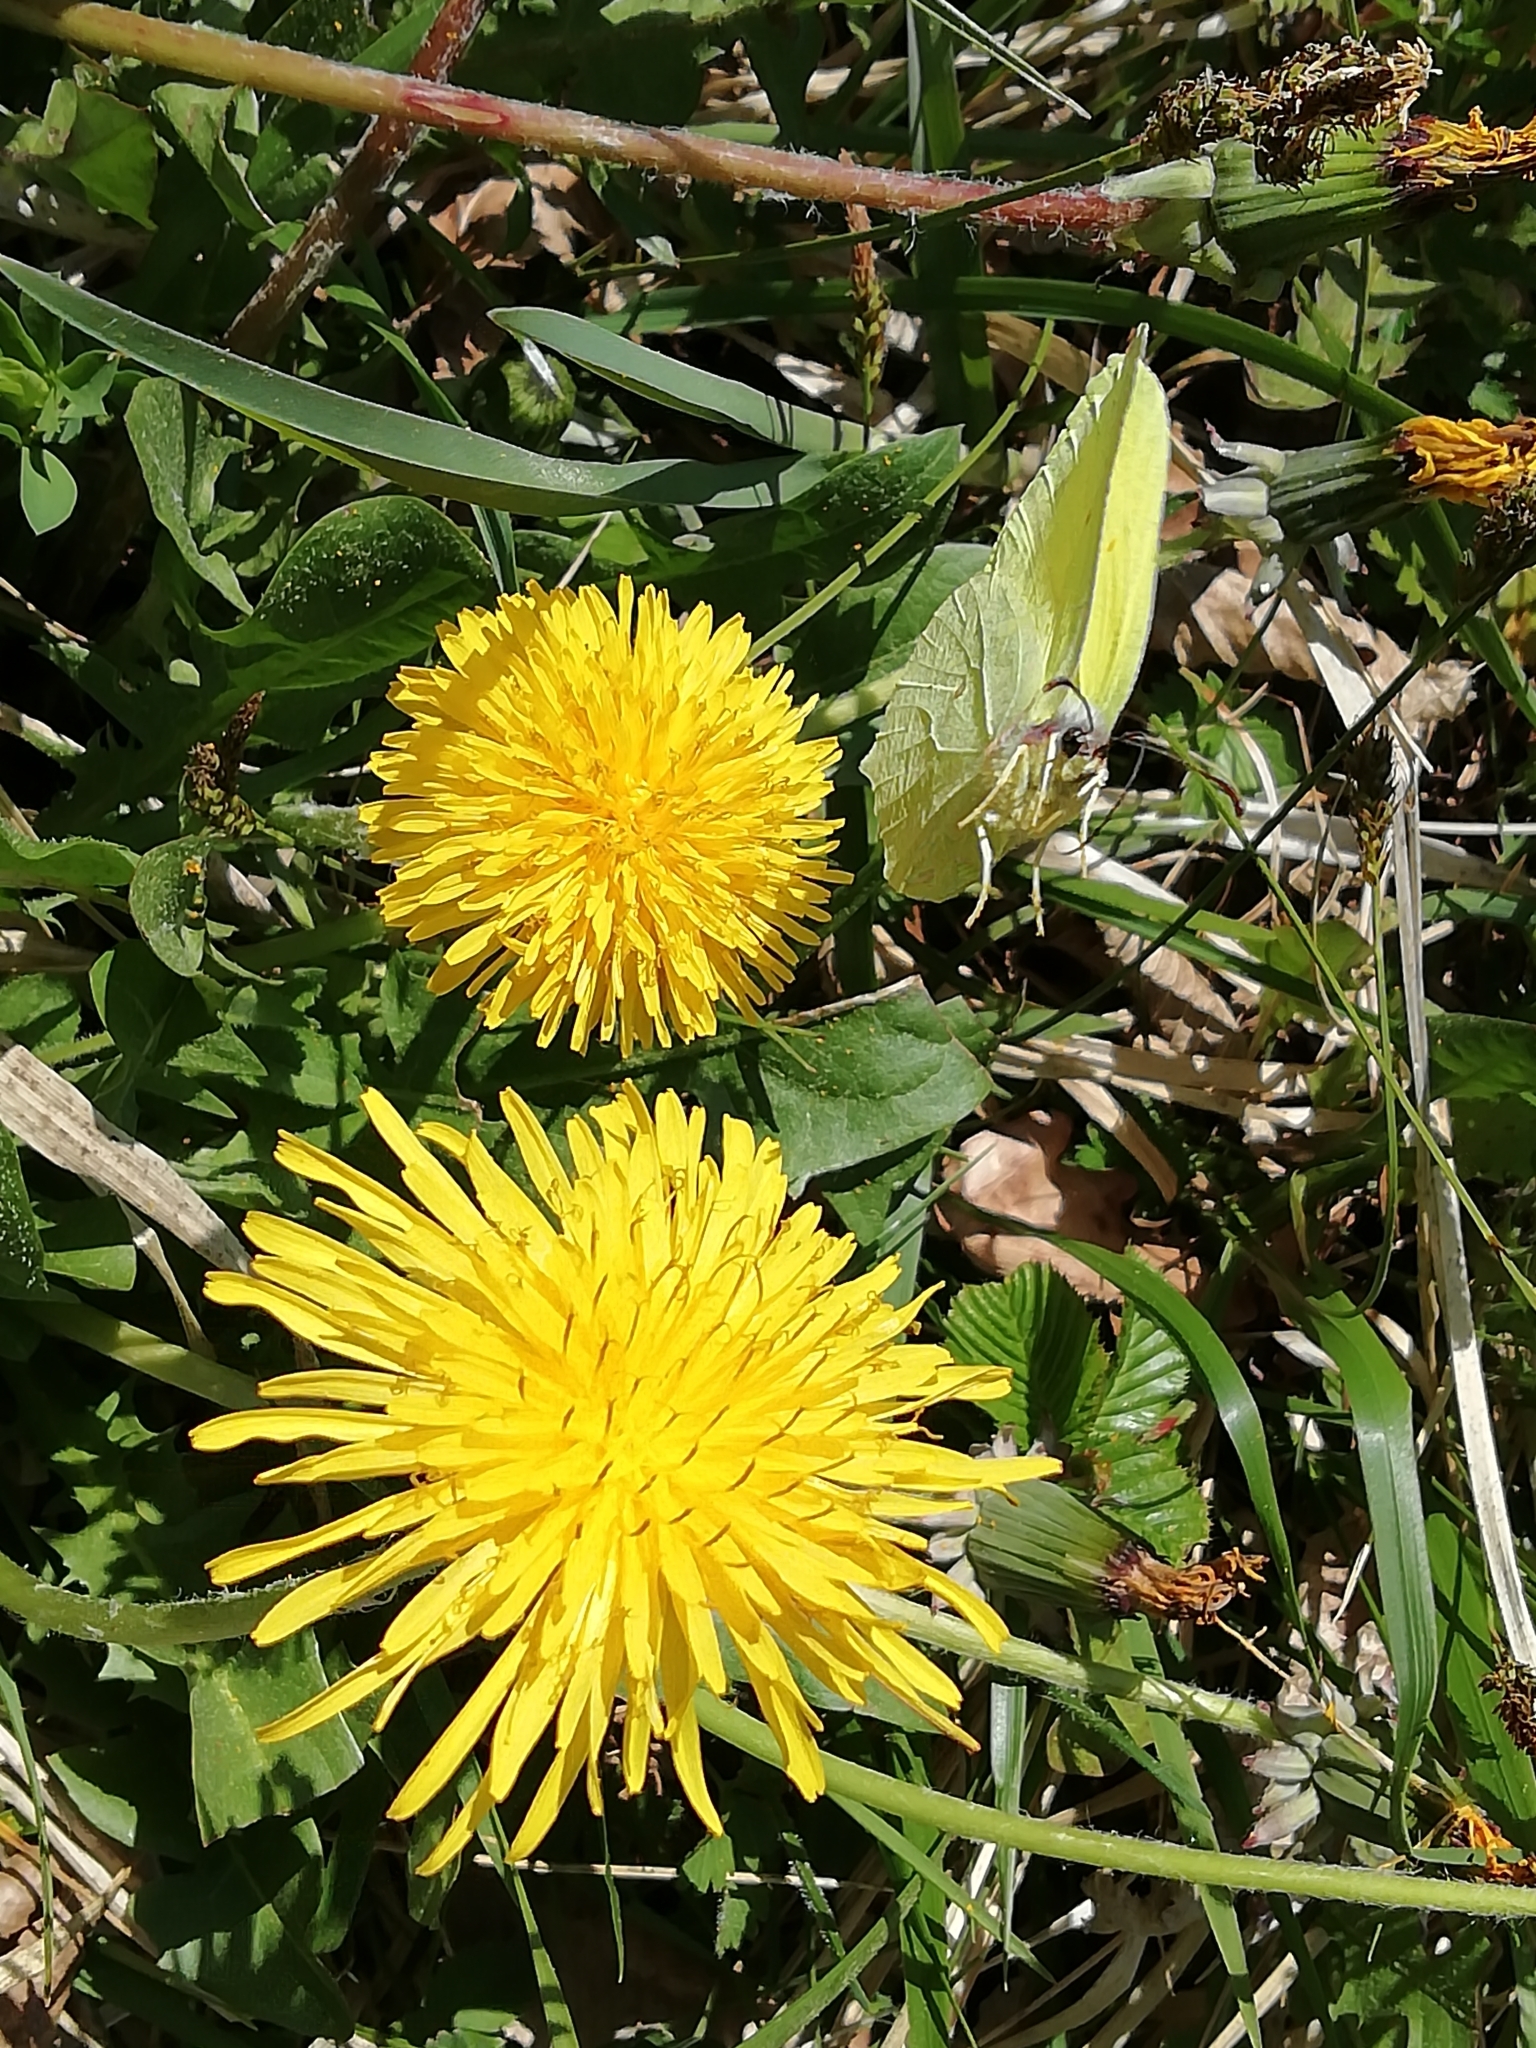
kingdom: Animalia
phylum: Arthropoda
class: Insecta
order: Lepidoptera
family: Pieridae
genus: Gonepteryx
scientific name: Gonepteryx rhamni
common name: Brimstone
